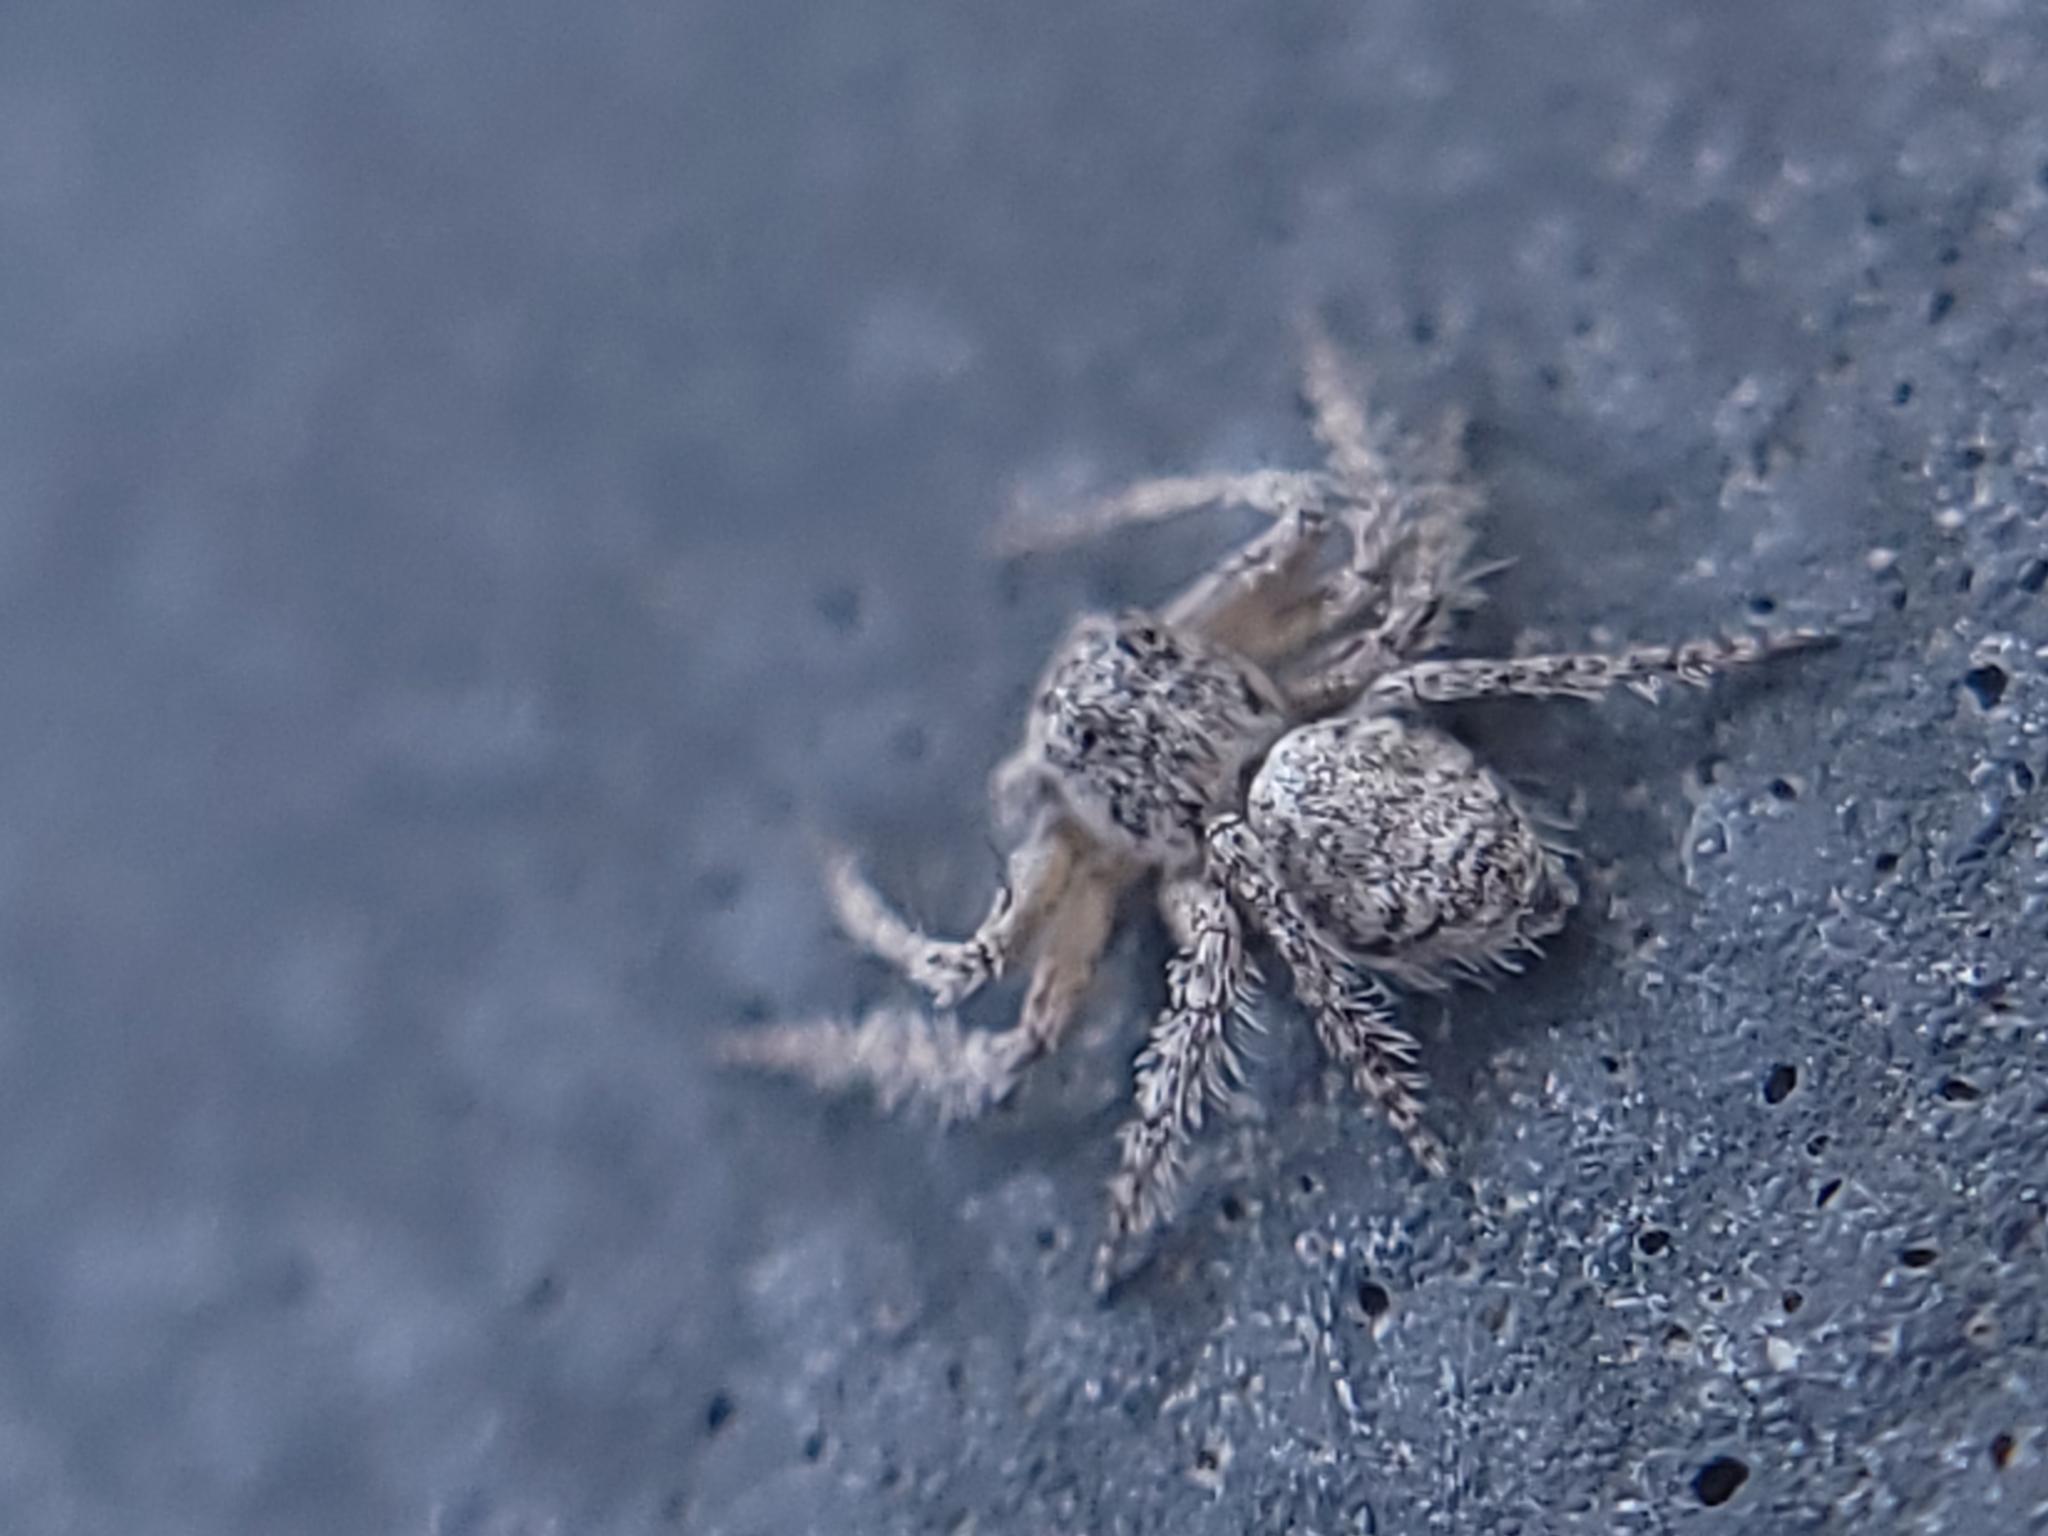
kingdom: Animalia
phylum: Arthropoda
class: Arachnida
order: Araneae
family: Oxyopidae
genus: Hamataliwa
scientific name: Hamataliwa grisea
